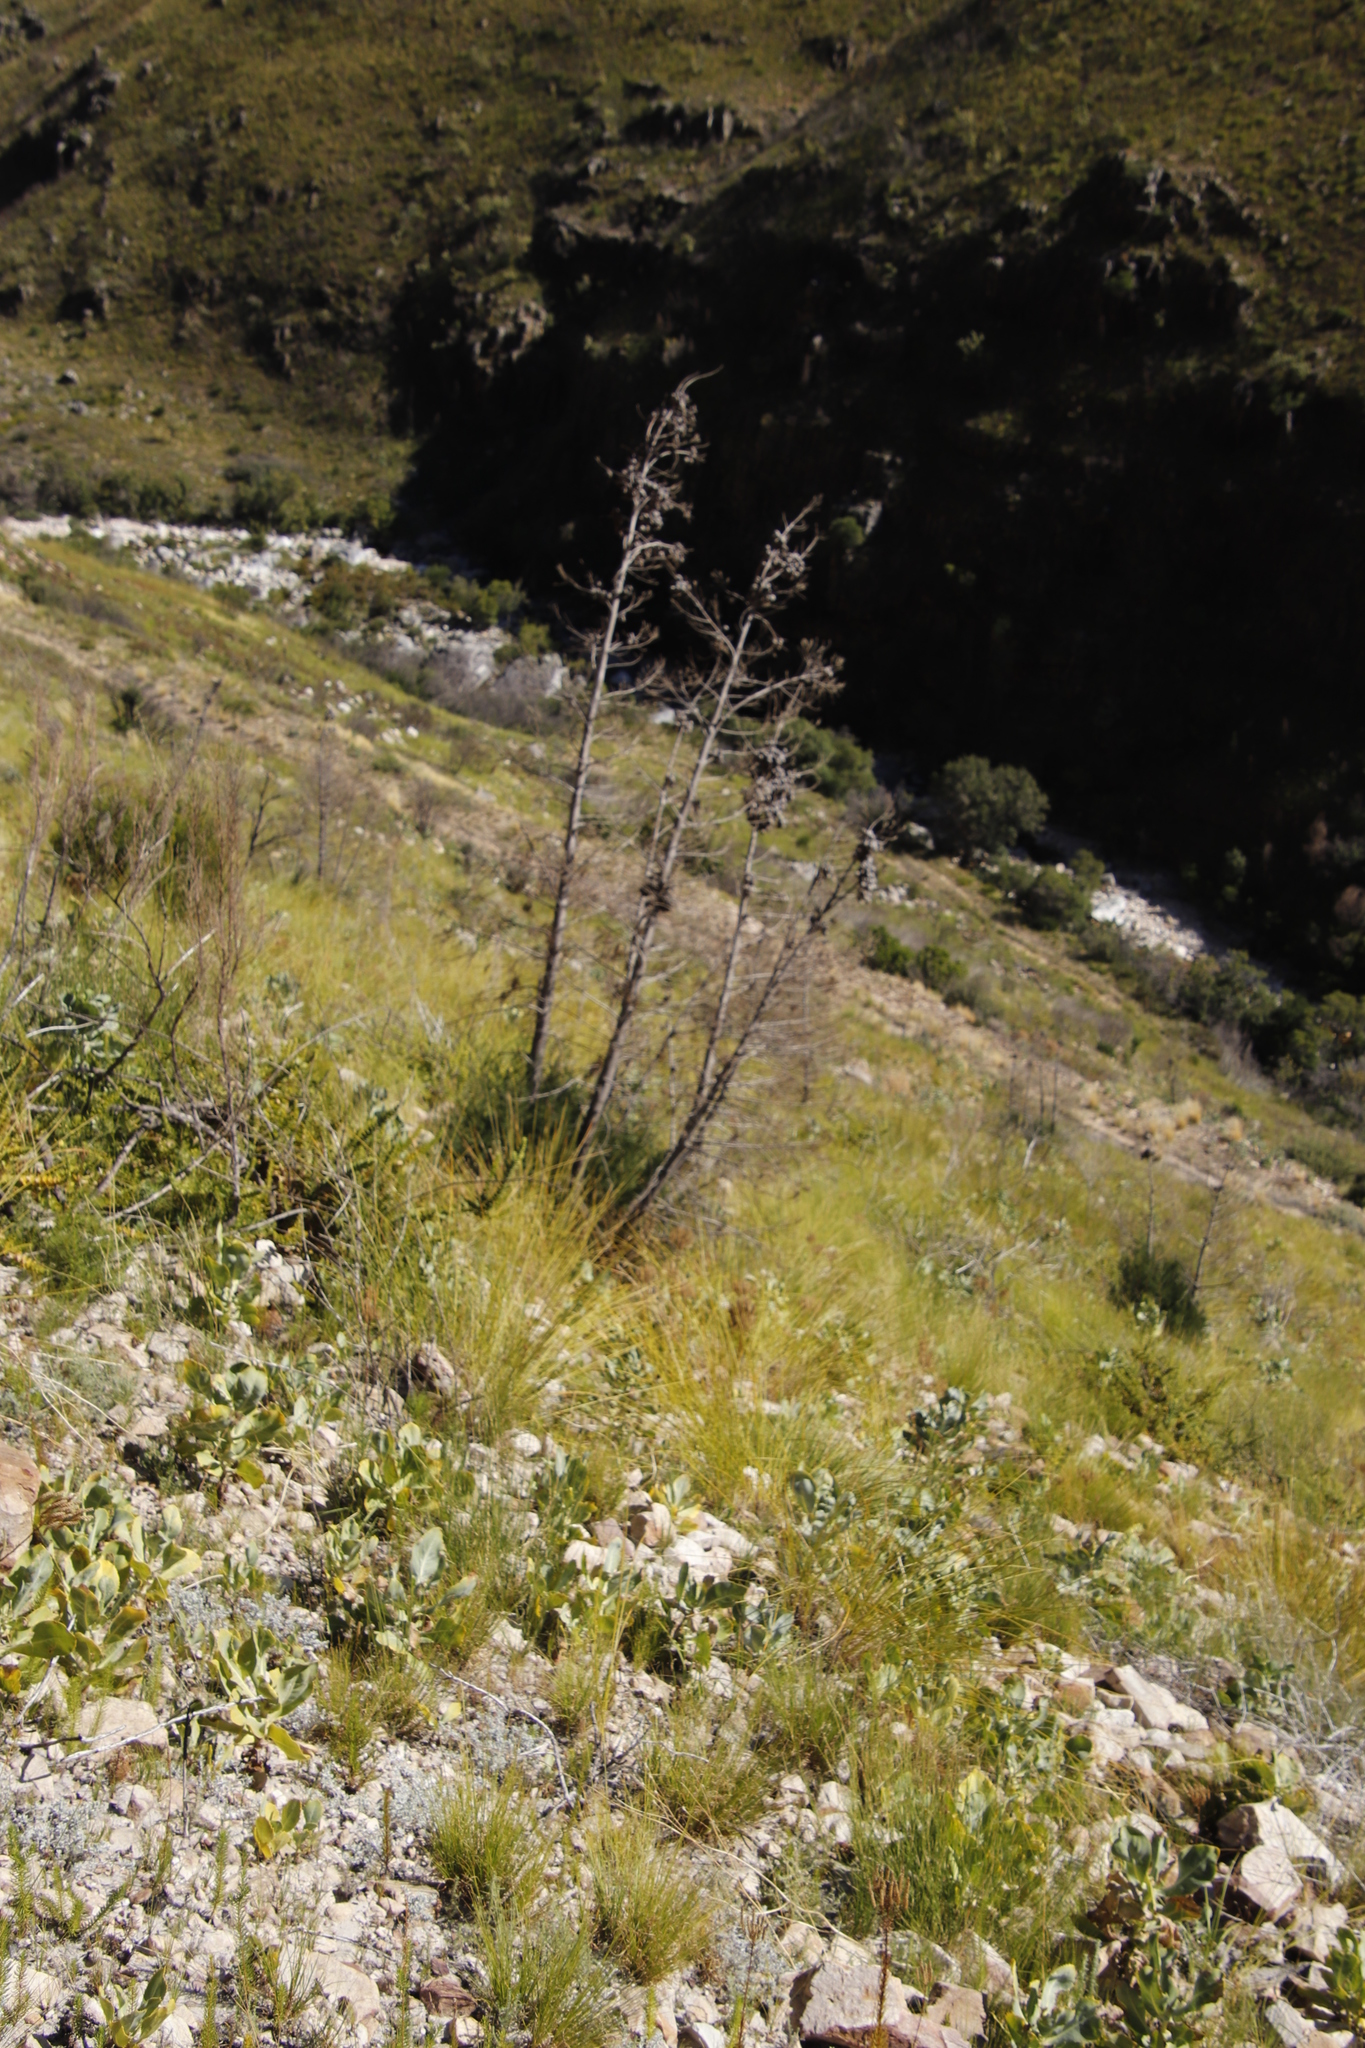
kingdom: Plantae
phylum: Tracheophyta
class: Pinopsida
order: Pinales
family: Cupressaceae
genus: Widdringtonia
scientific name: Widdringtonia nodiflora
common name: Cape cypress
